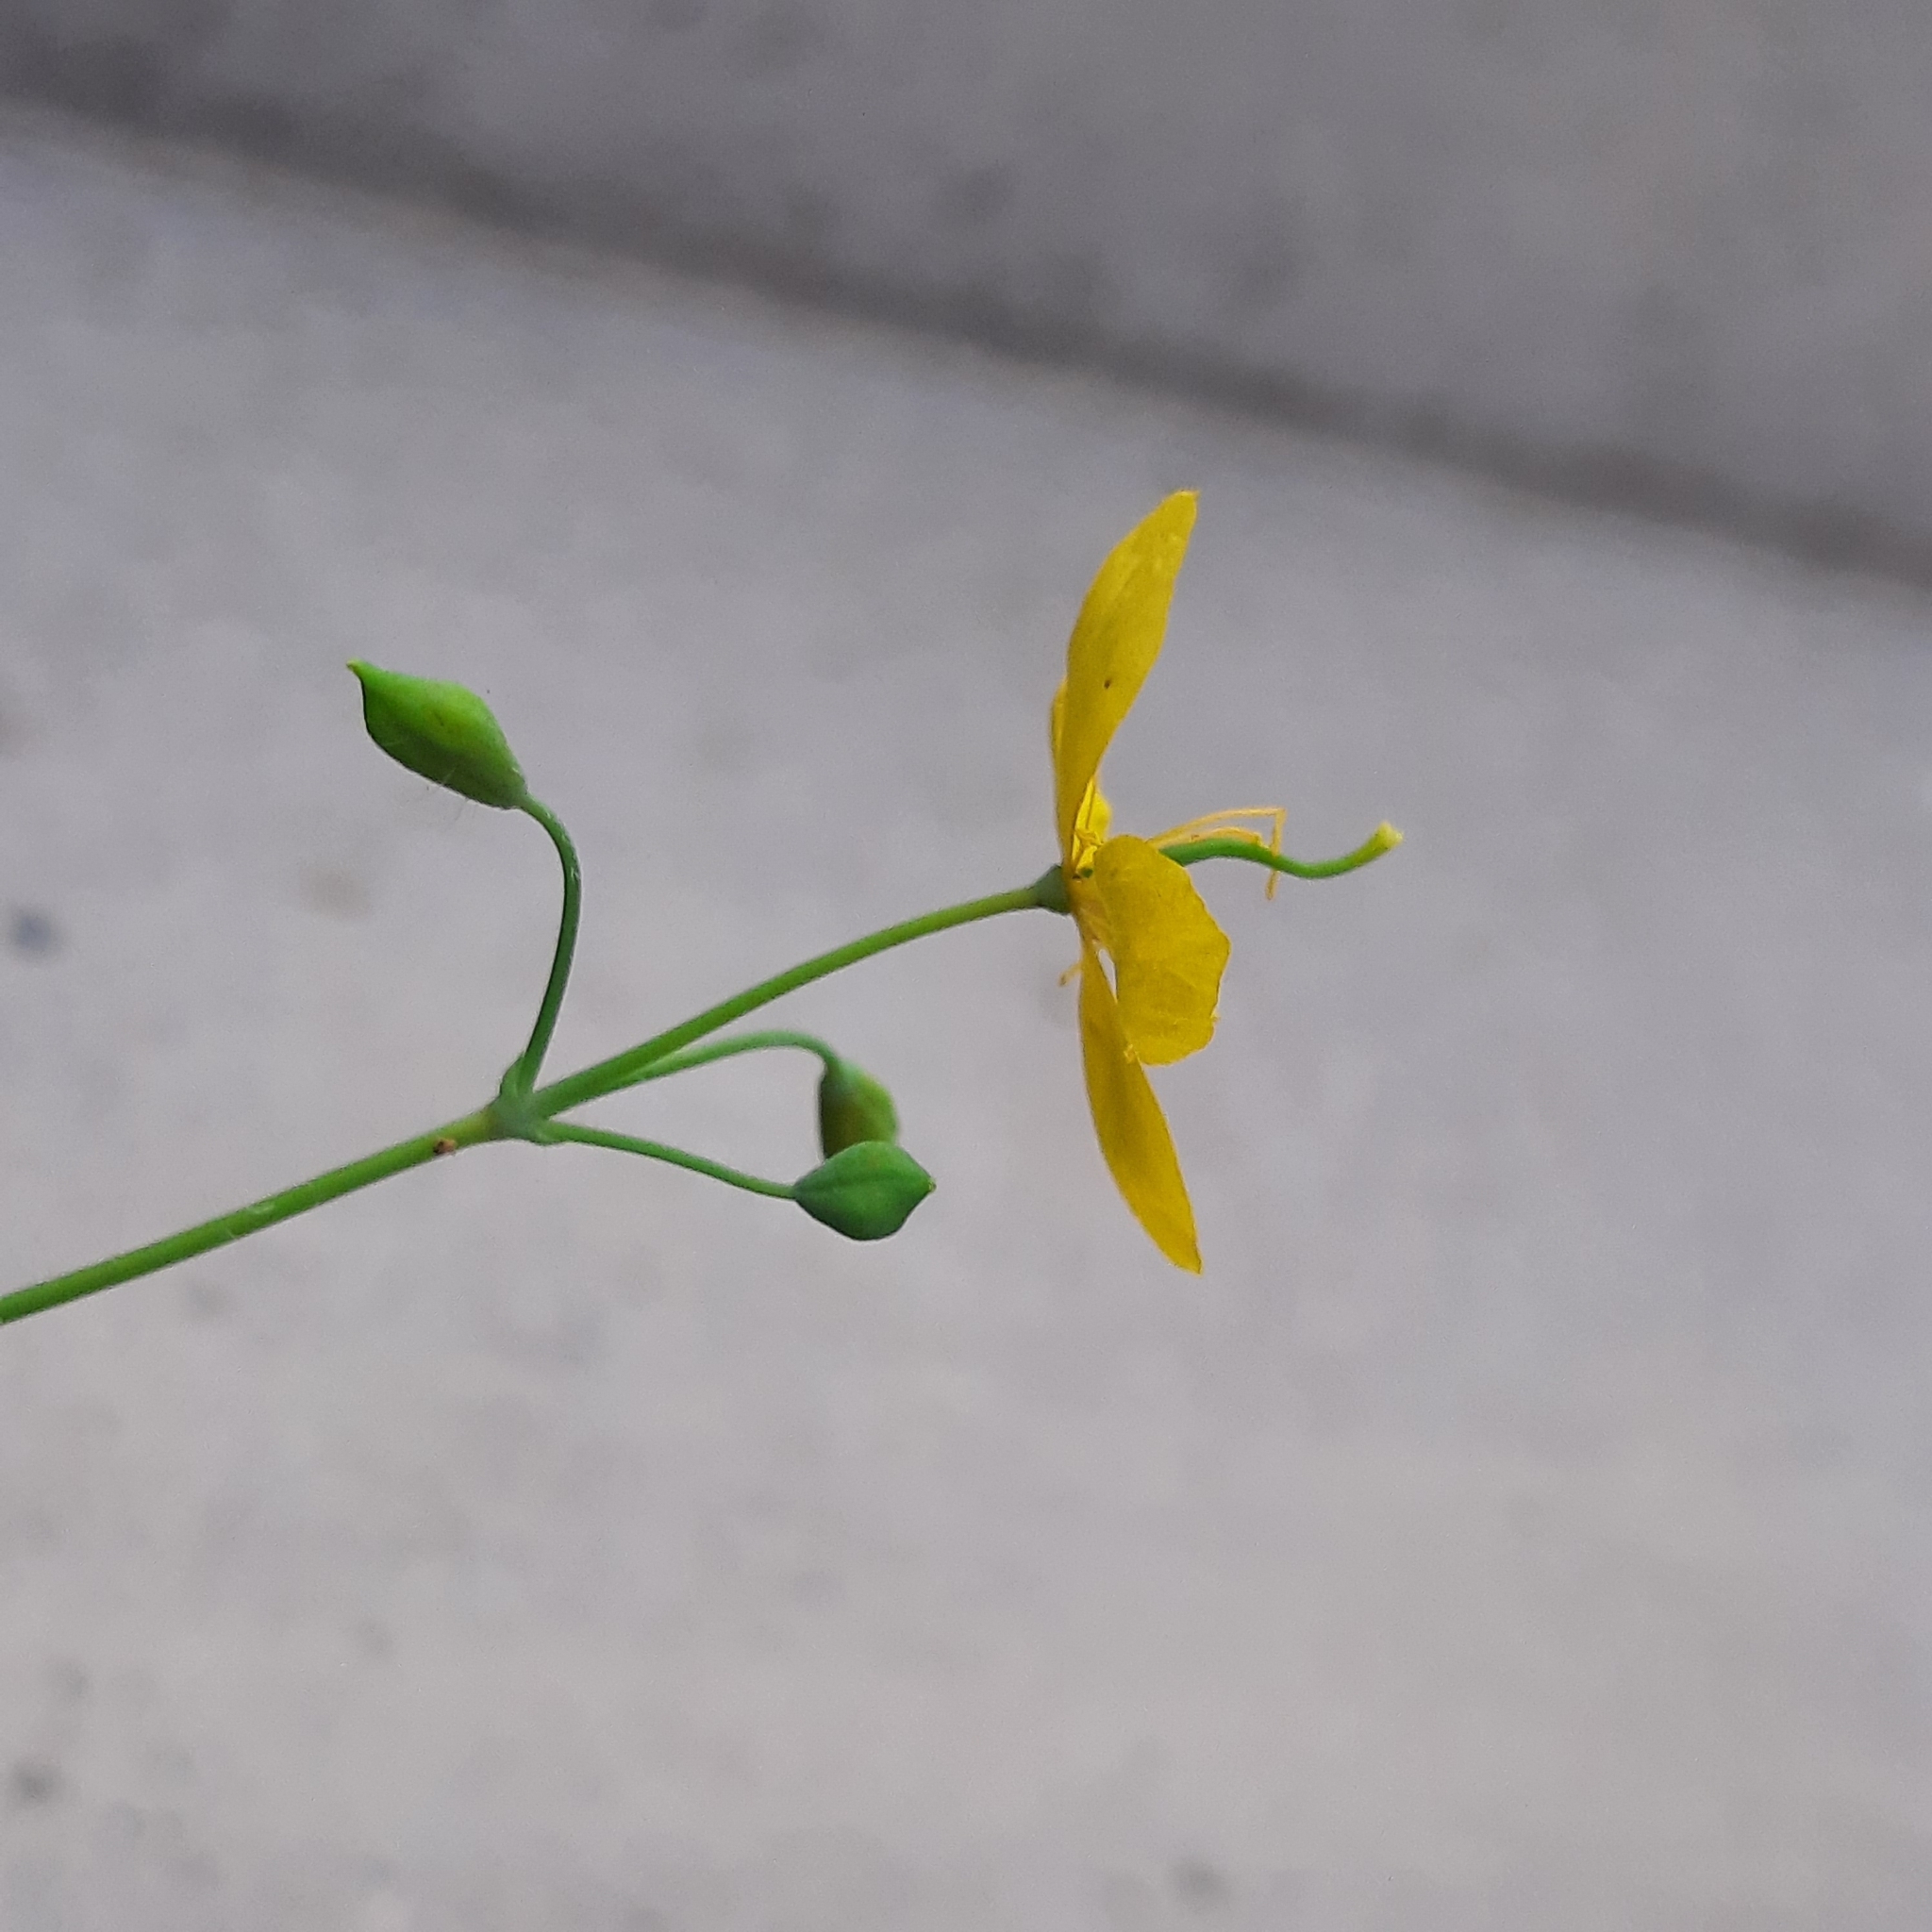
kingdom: Plantae
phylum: Tracheophyta
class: Magnoliopsida
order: Ranunculales
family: Papaveraceae
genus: Chelidonium
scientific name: Chelidonium majus
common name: Greater celandine
